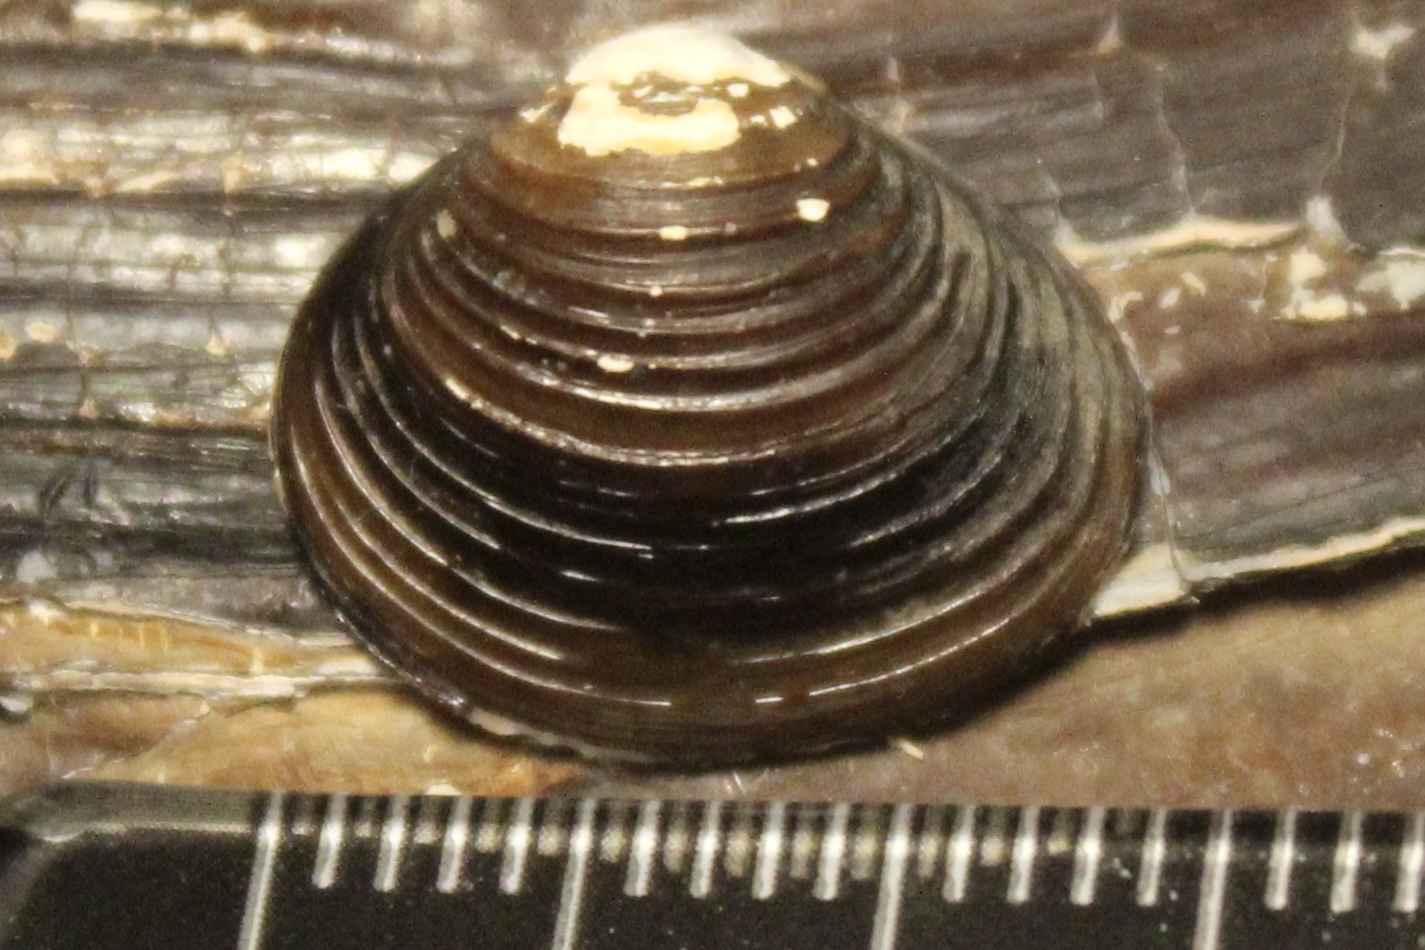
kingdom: Animalia
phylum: Mollusca
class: Bivalvia
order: Venerida
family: Cyrenidae
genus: Corbicula
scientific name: Corbicula fluminea
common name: Asian clam
